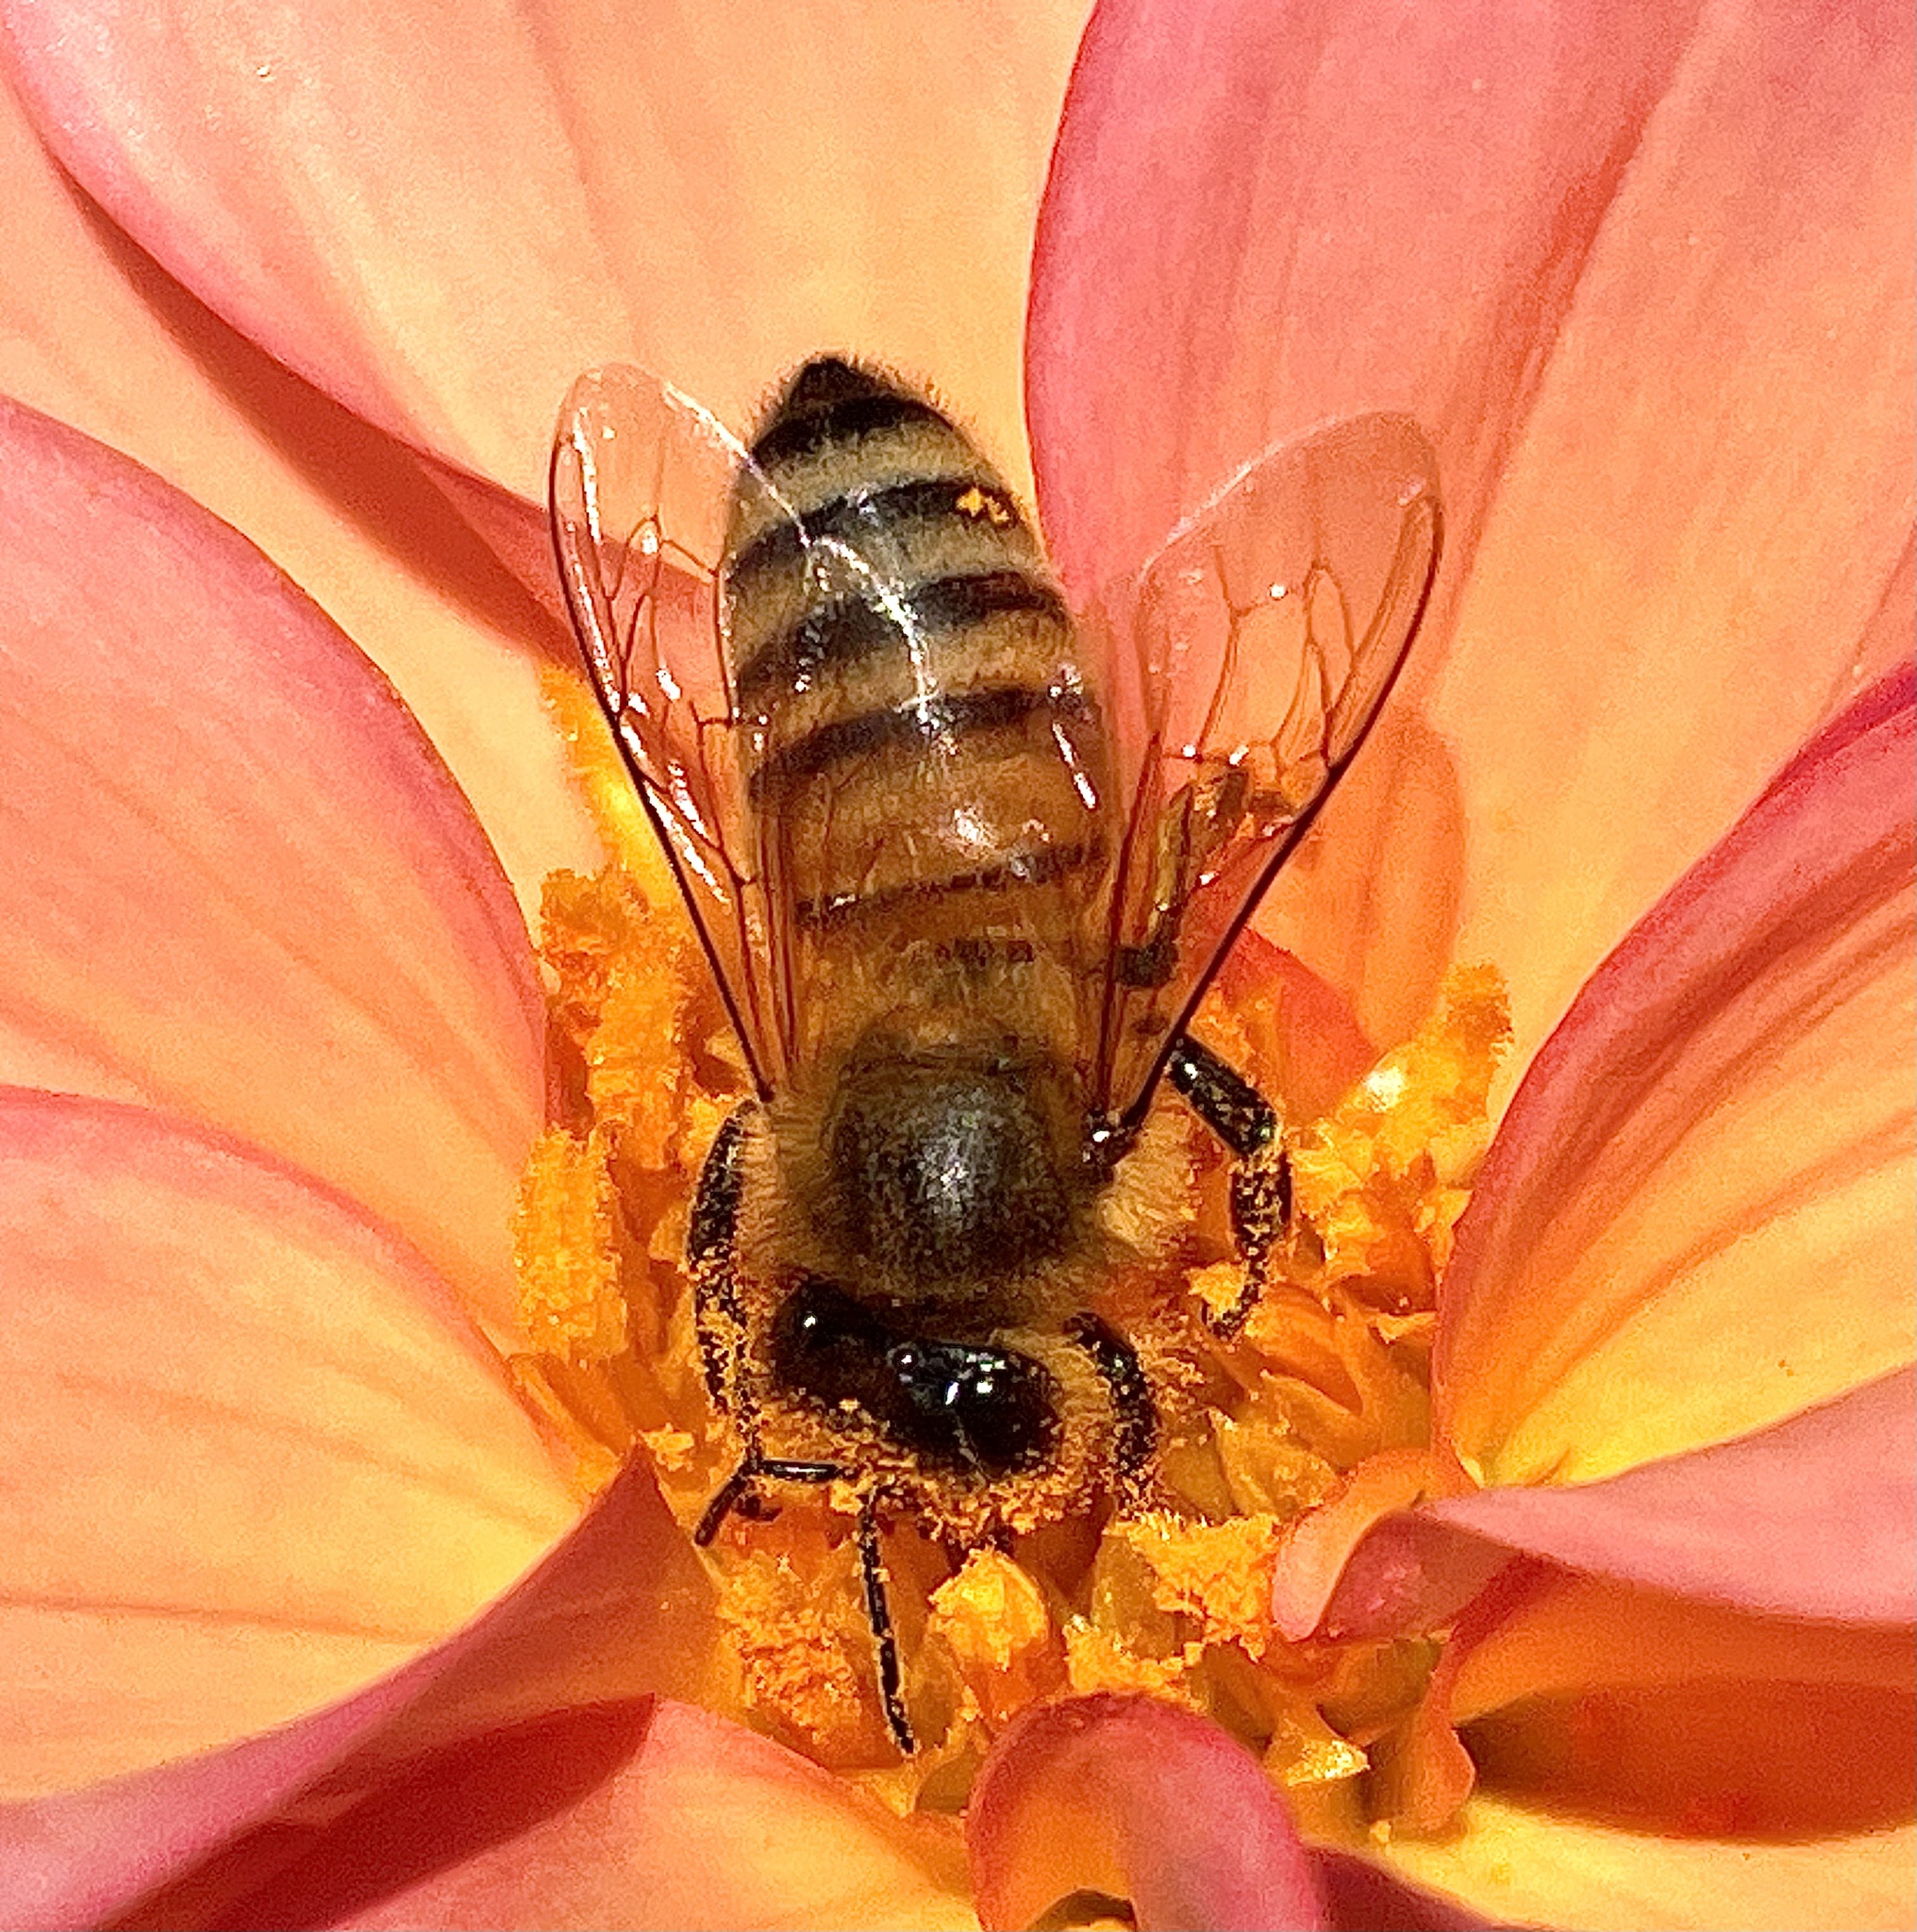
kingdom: Animalia
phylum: Arthropoda
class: Insecta
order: Hymenoptera
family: Apidae
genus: Apis
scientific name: Apis mellifera
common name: Honey bee
